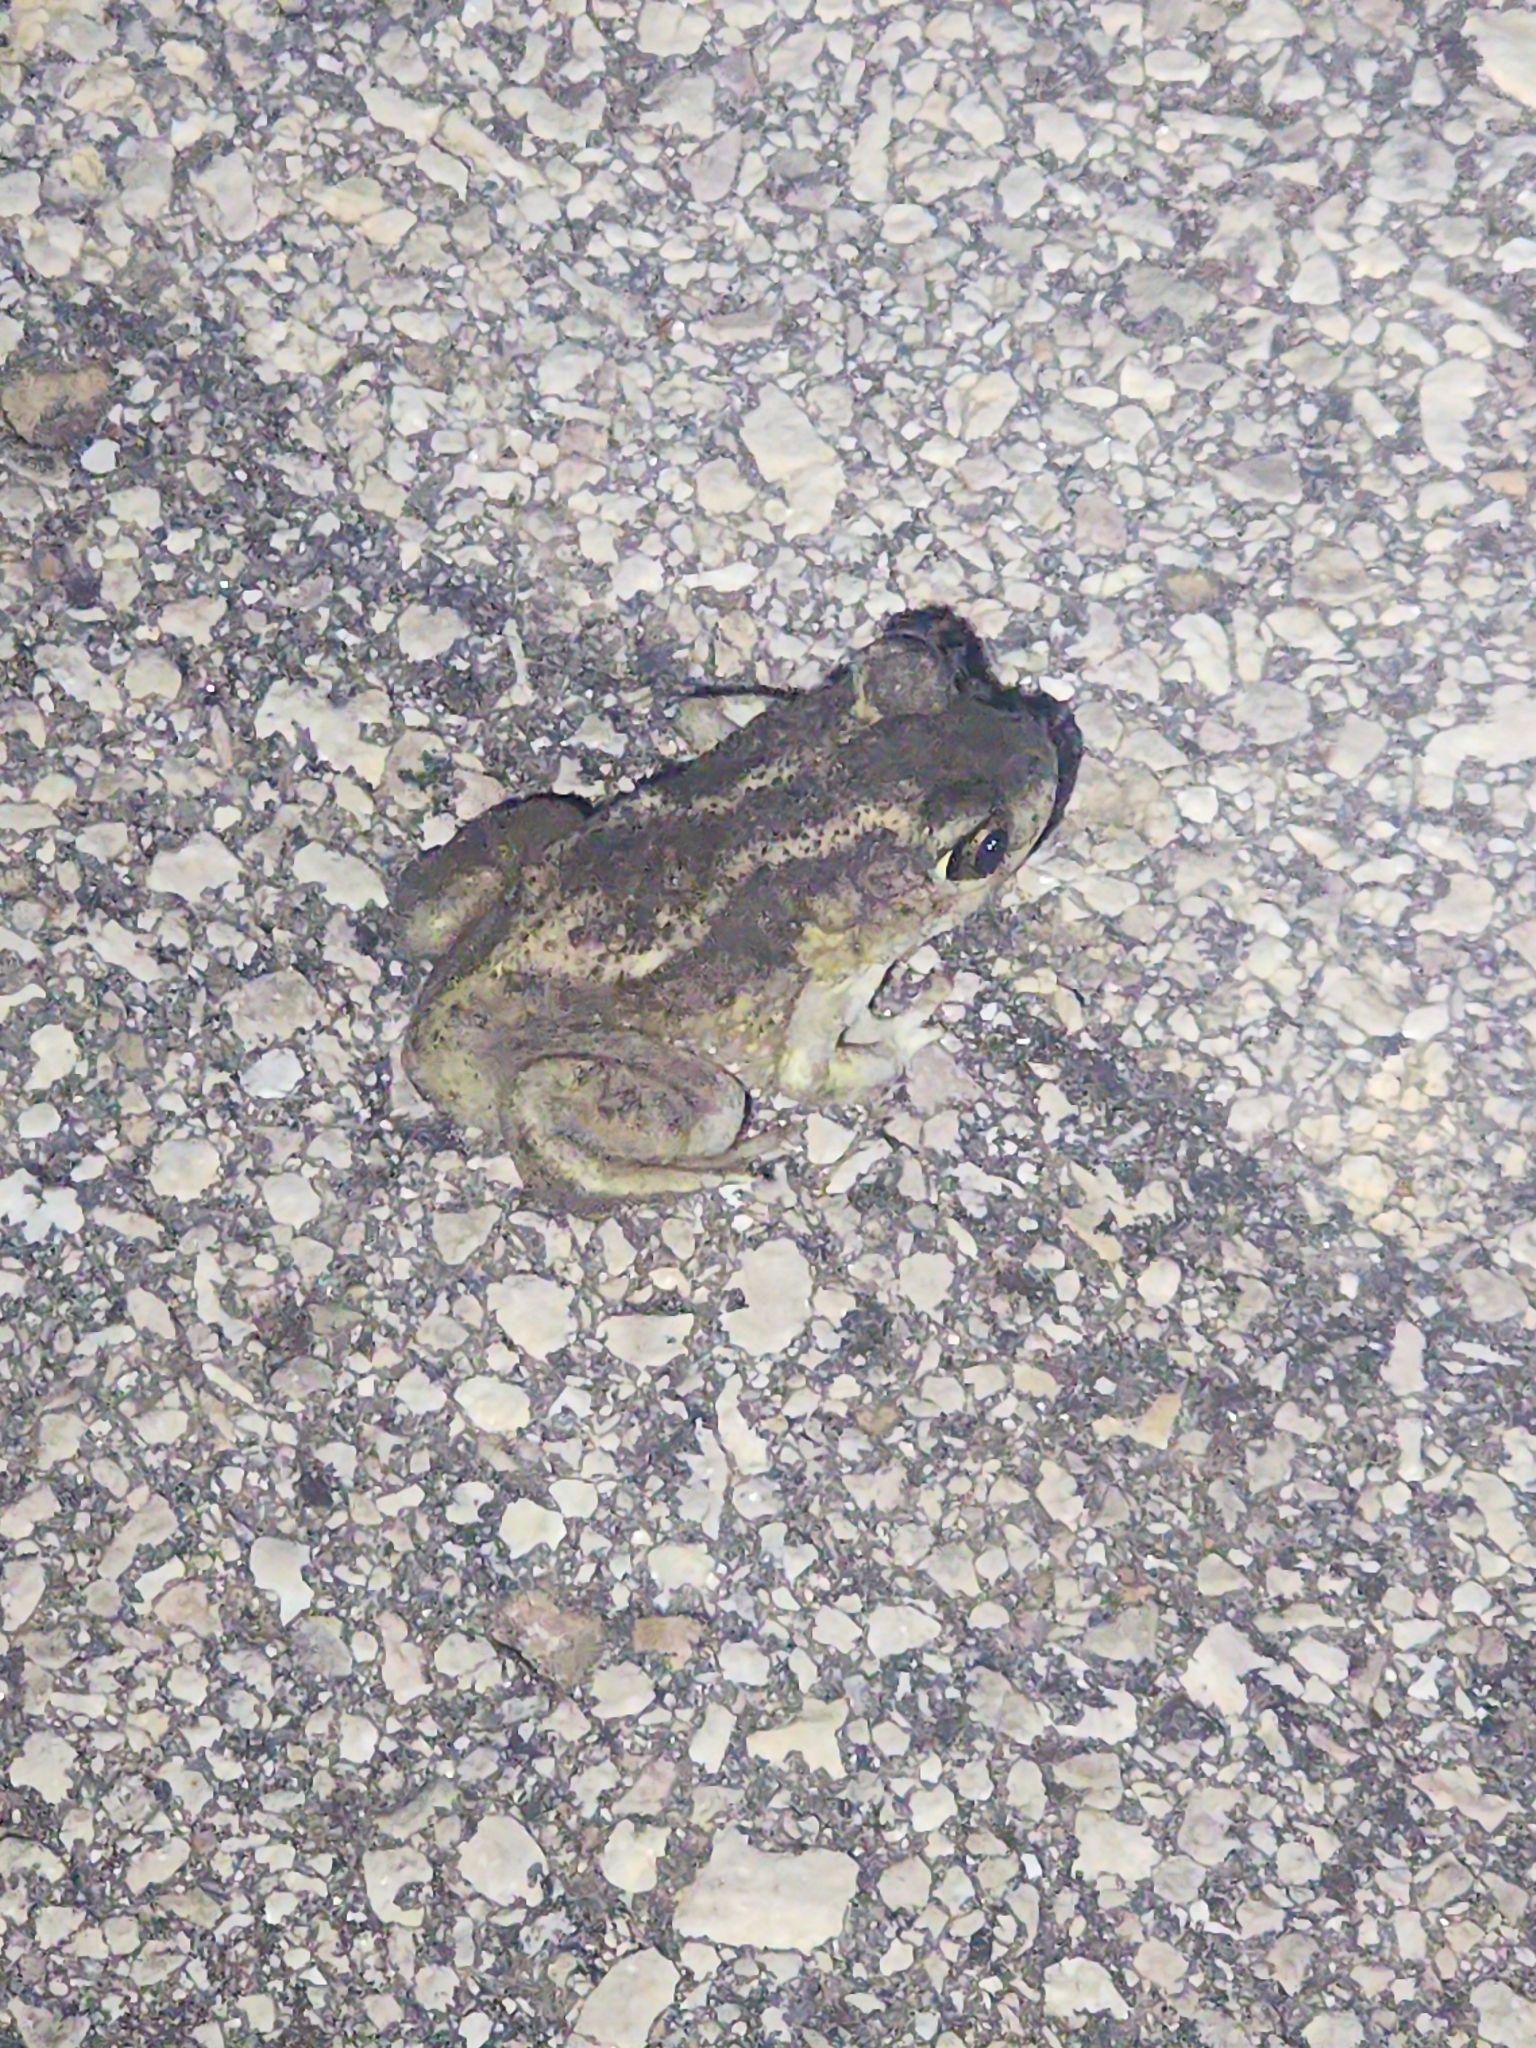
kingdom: Animalia
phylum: Chordata
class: Amphibia
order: Anura
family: Scaphiopodidae
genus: Scaphiopus
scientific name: Scaphiopus hurterii
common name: Hurter's spadefoot toad
